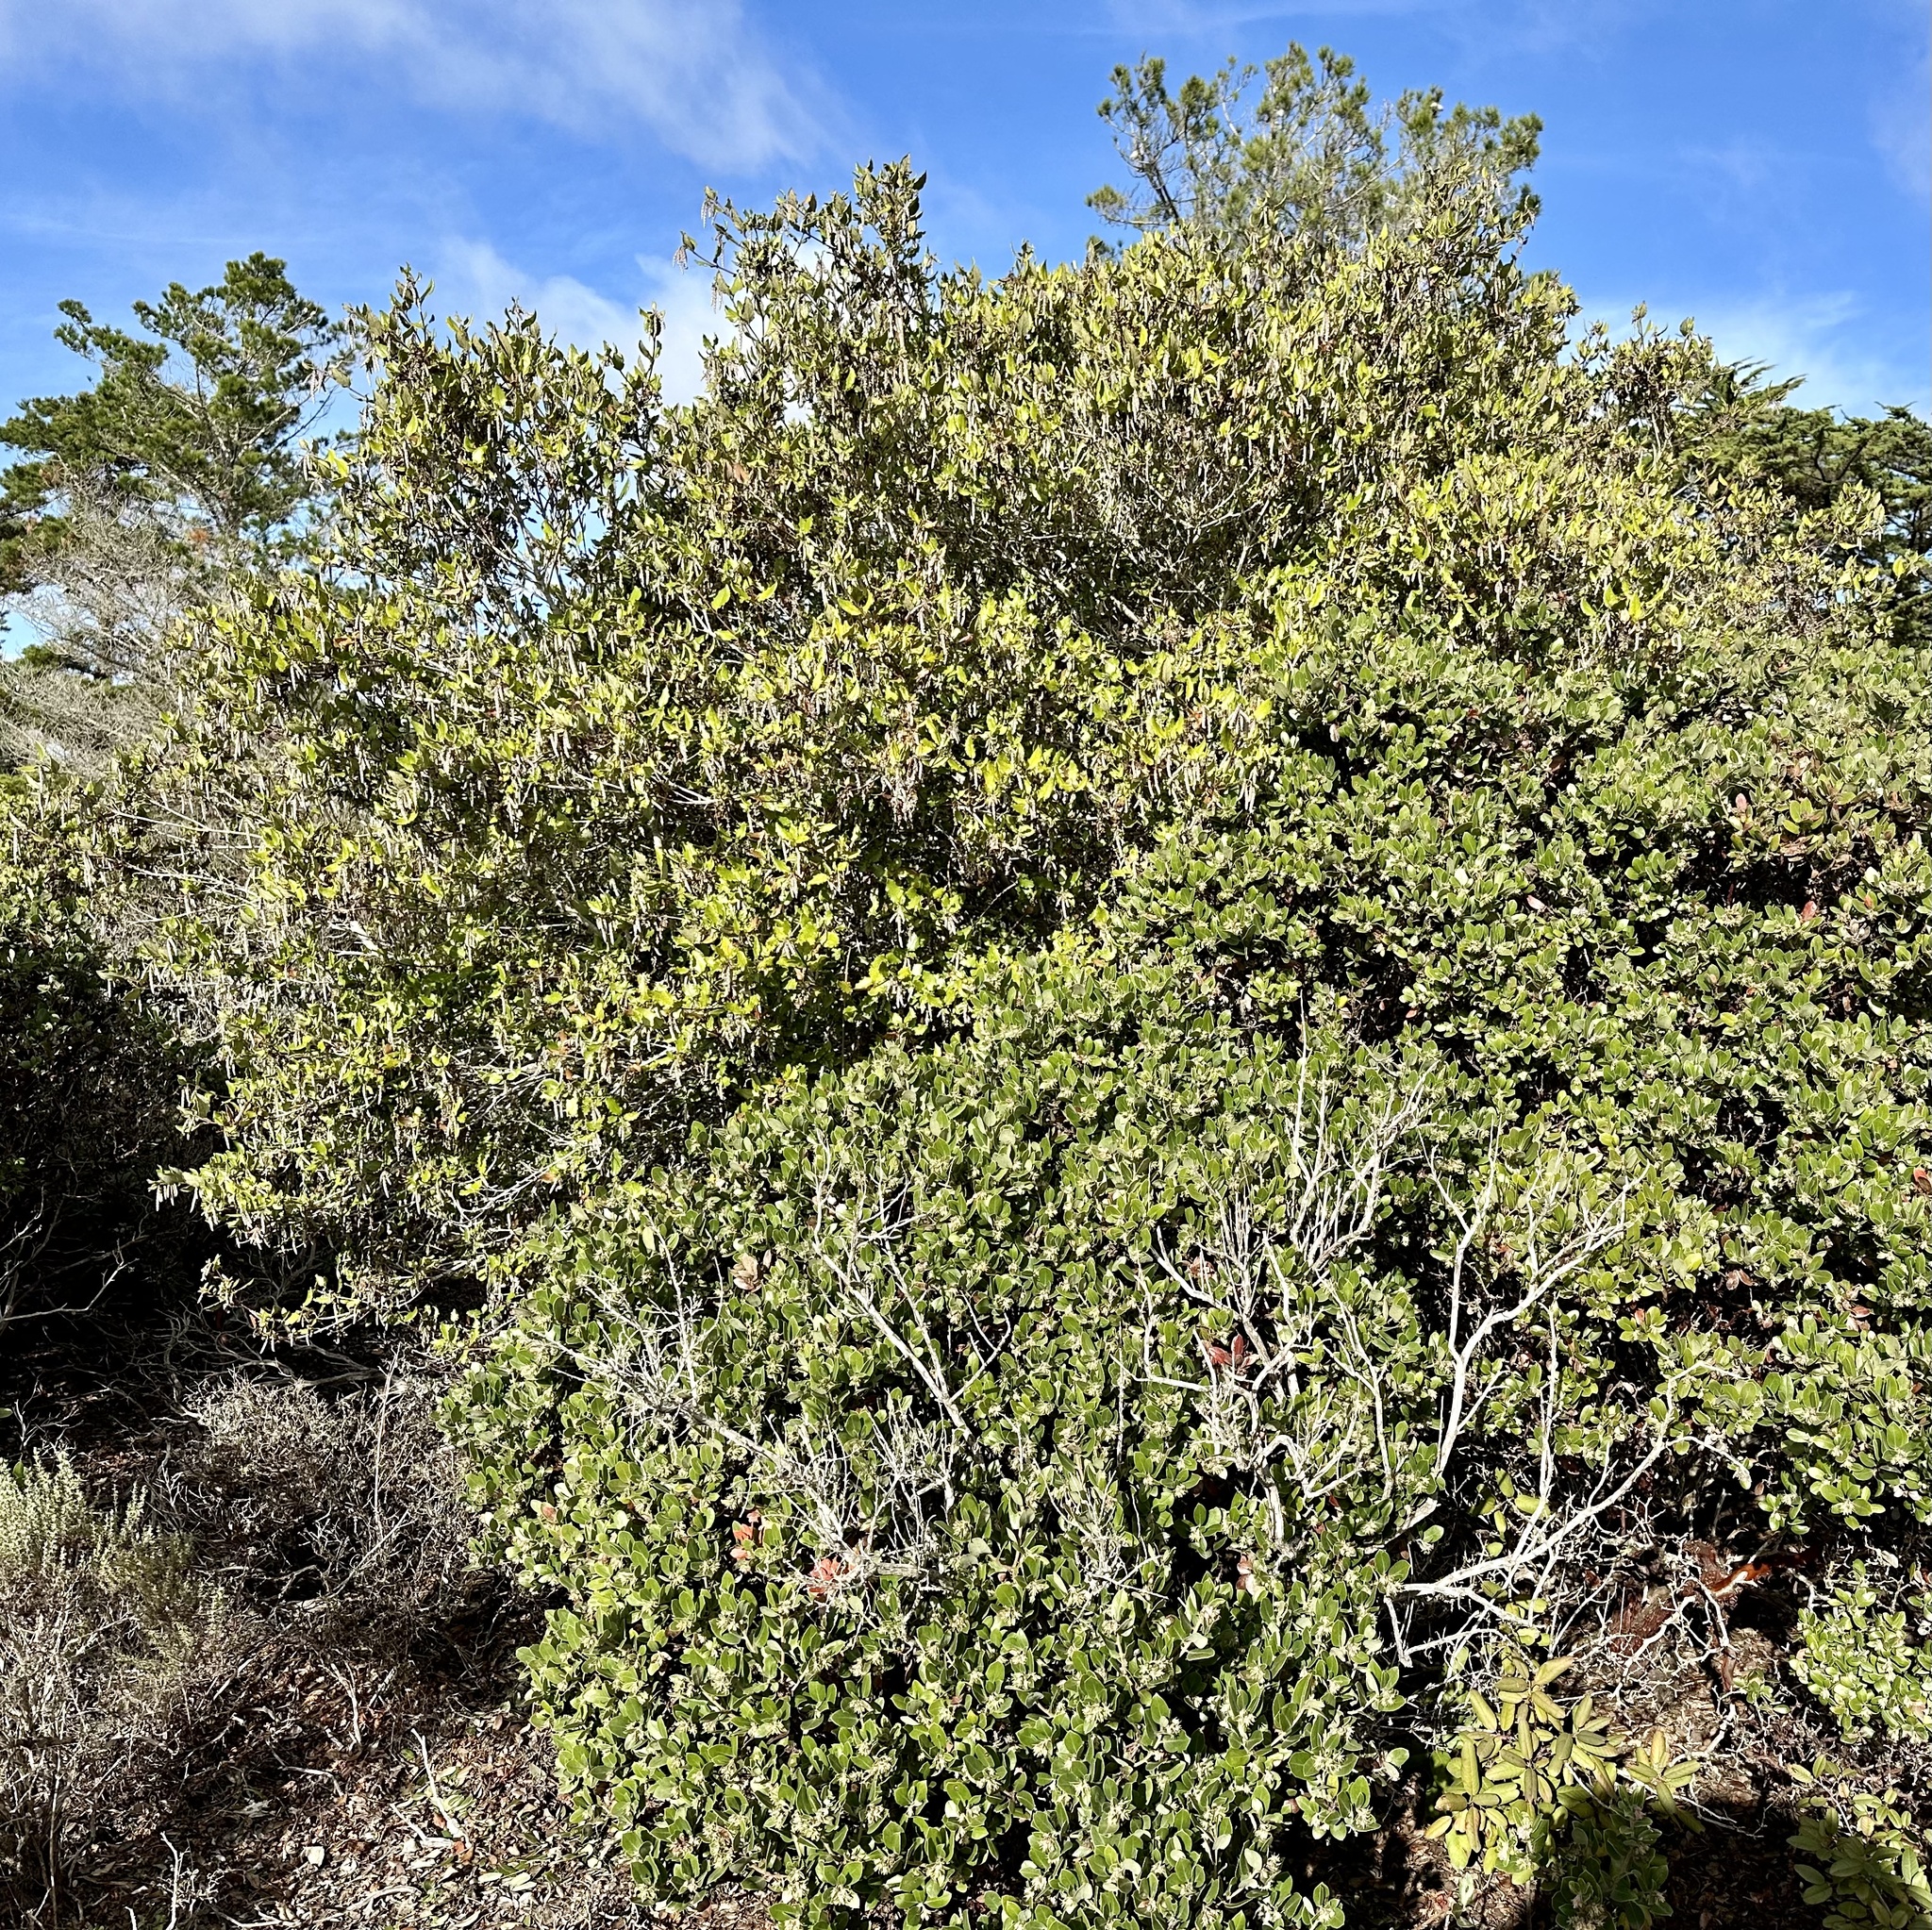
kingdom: Plantae
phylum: Tracheophyta
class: Magnoliopsida
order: Garryales
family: Garryaceae
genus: Garrya
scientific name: Garrya elliptica
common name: Silk-tassel
